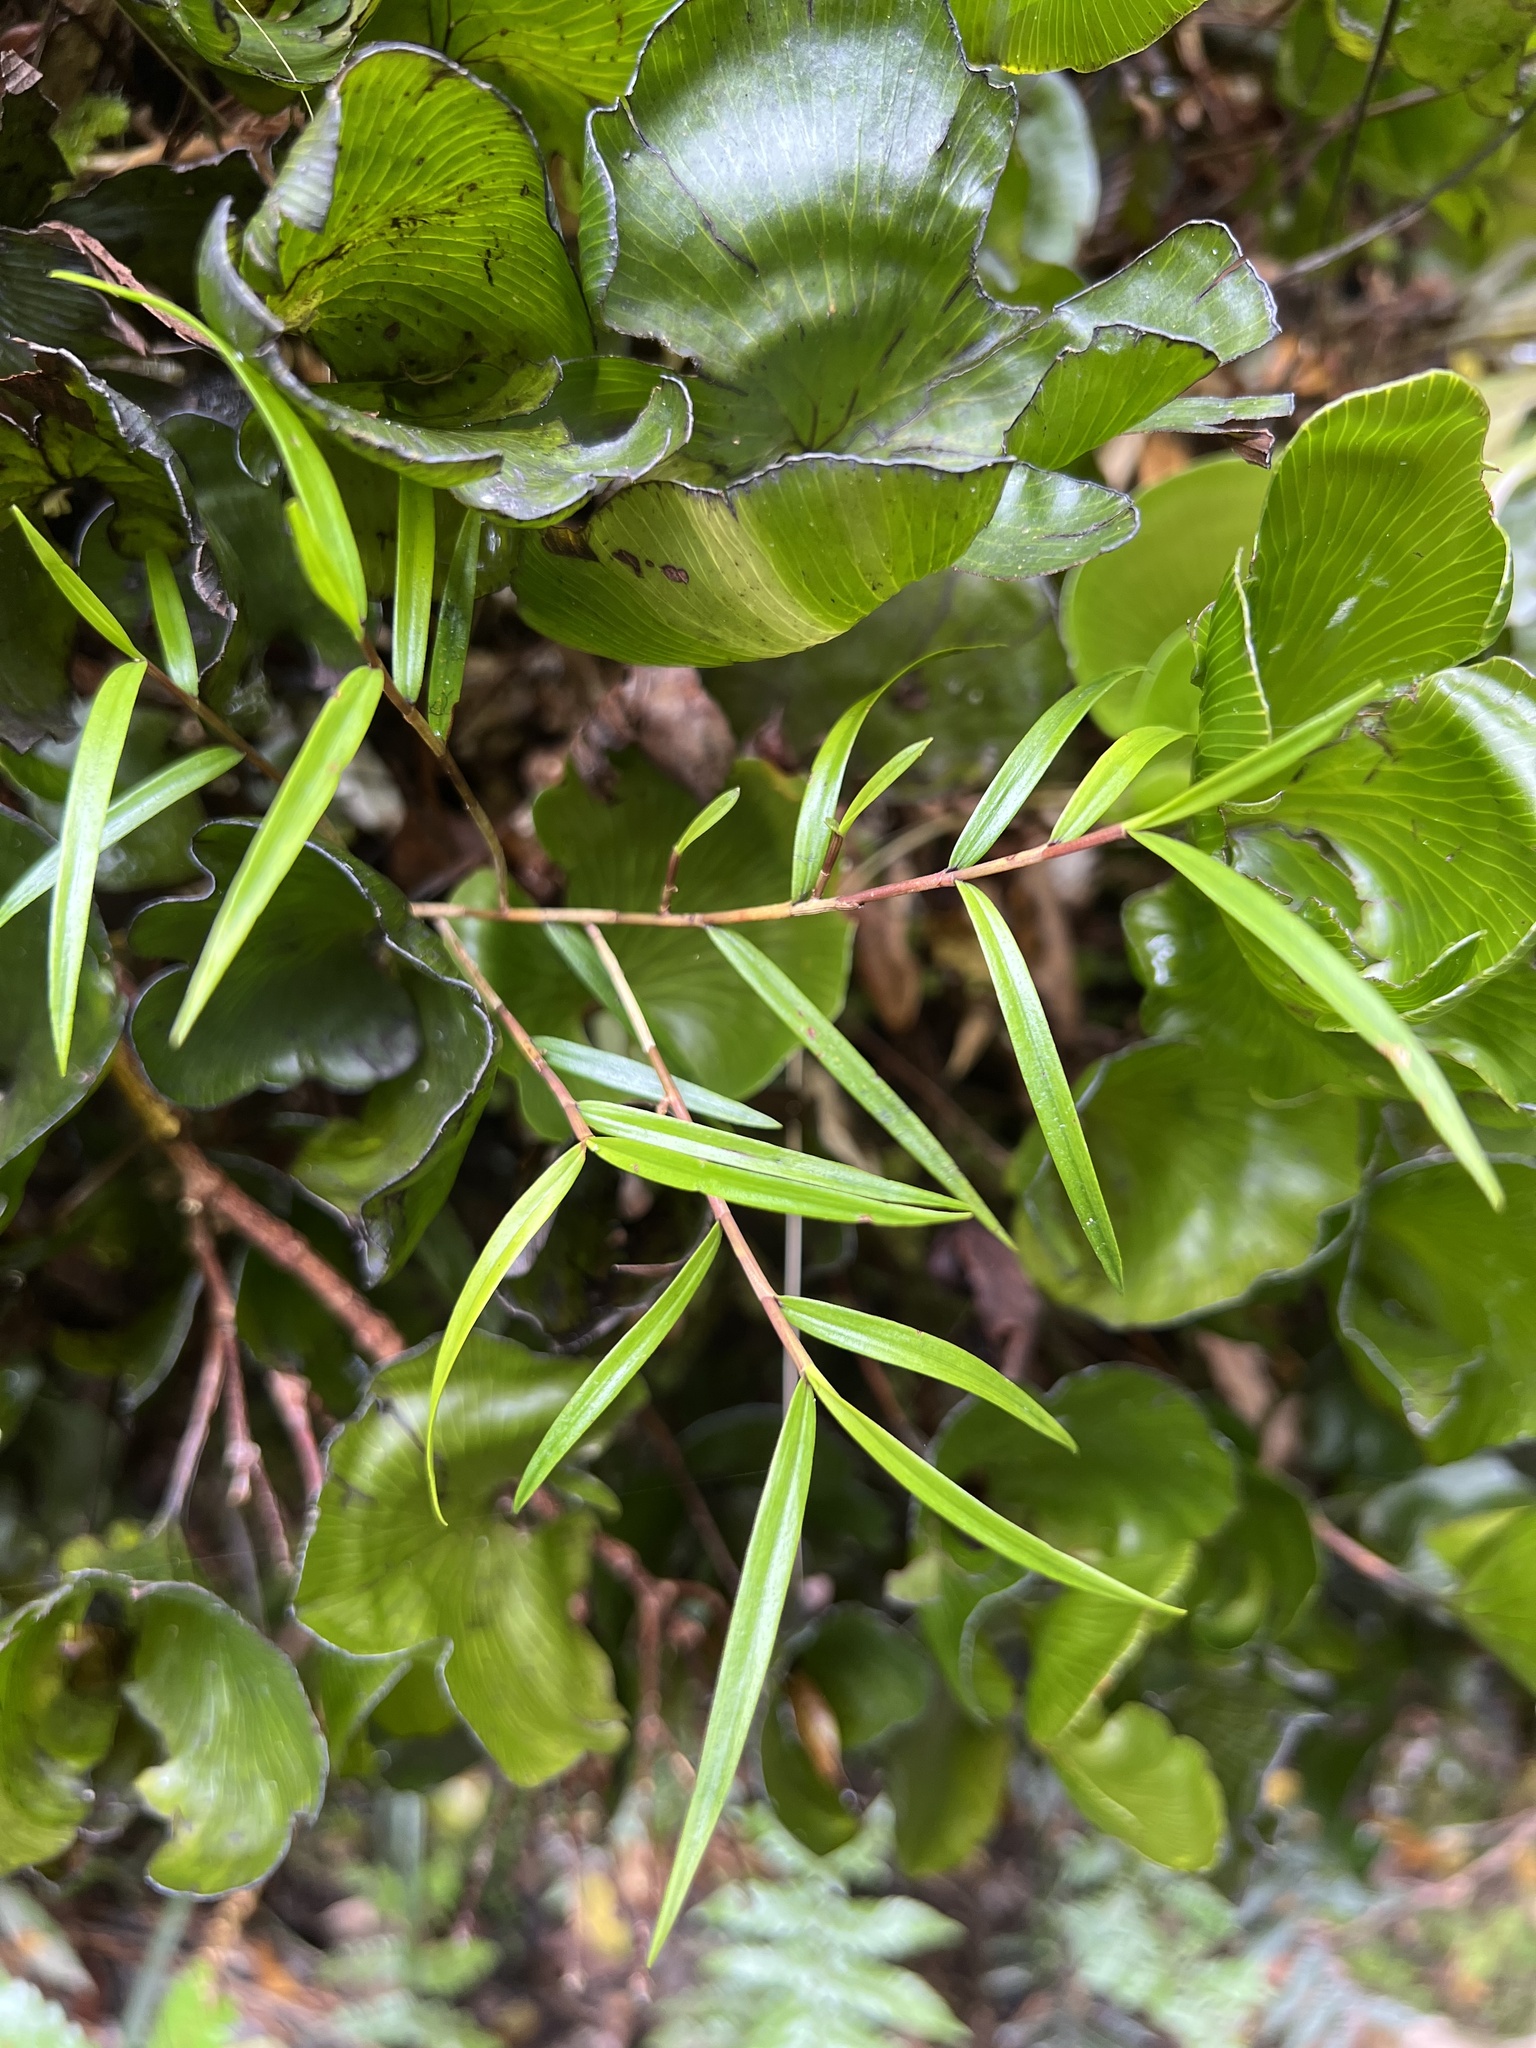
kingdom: Plantae
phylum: Tracheophyta
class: Liliopsida
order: Asparagales
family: Orchidaceae
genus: Dendrobium
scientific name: Dendrobium cunninghamii
